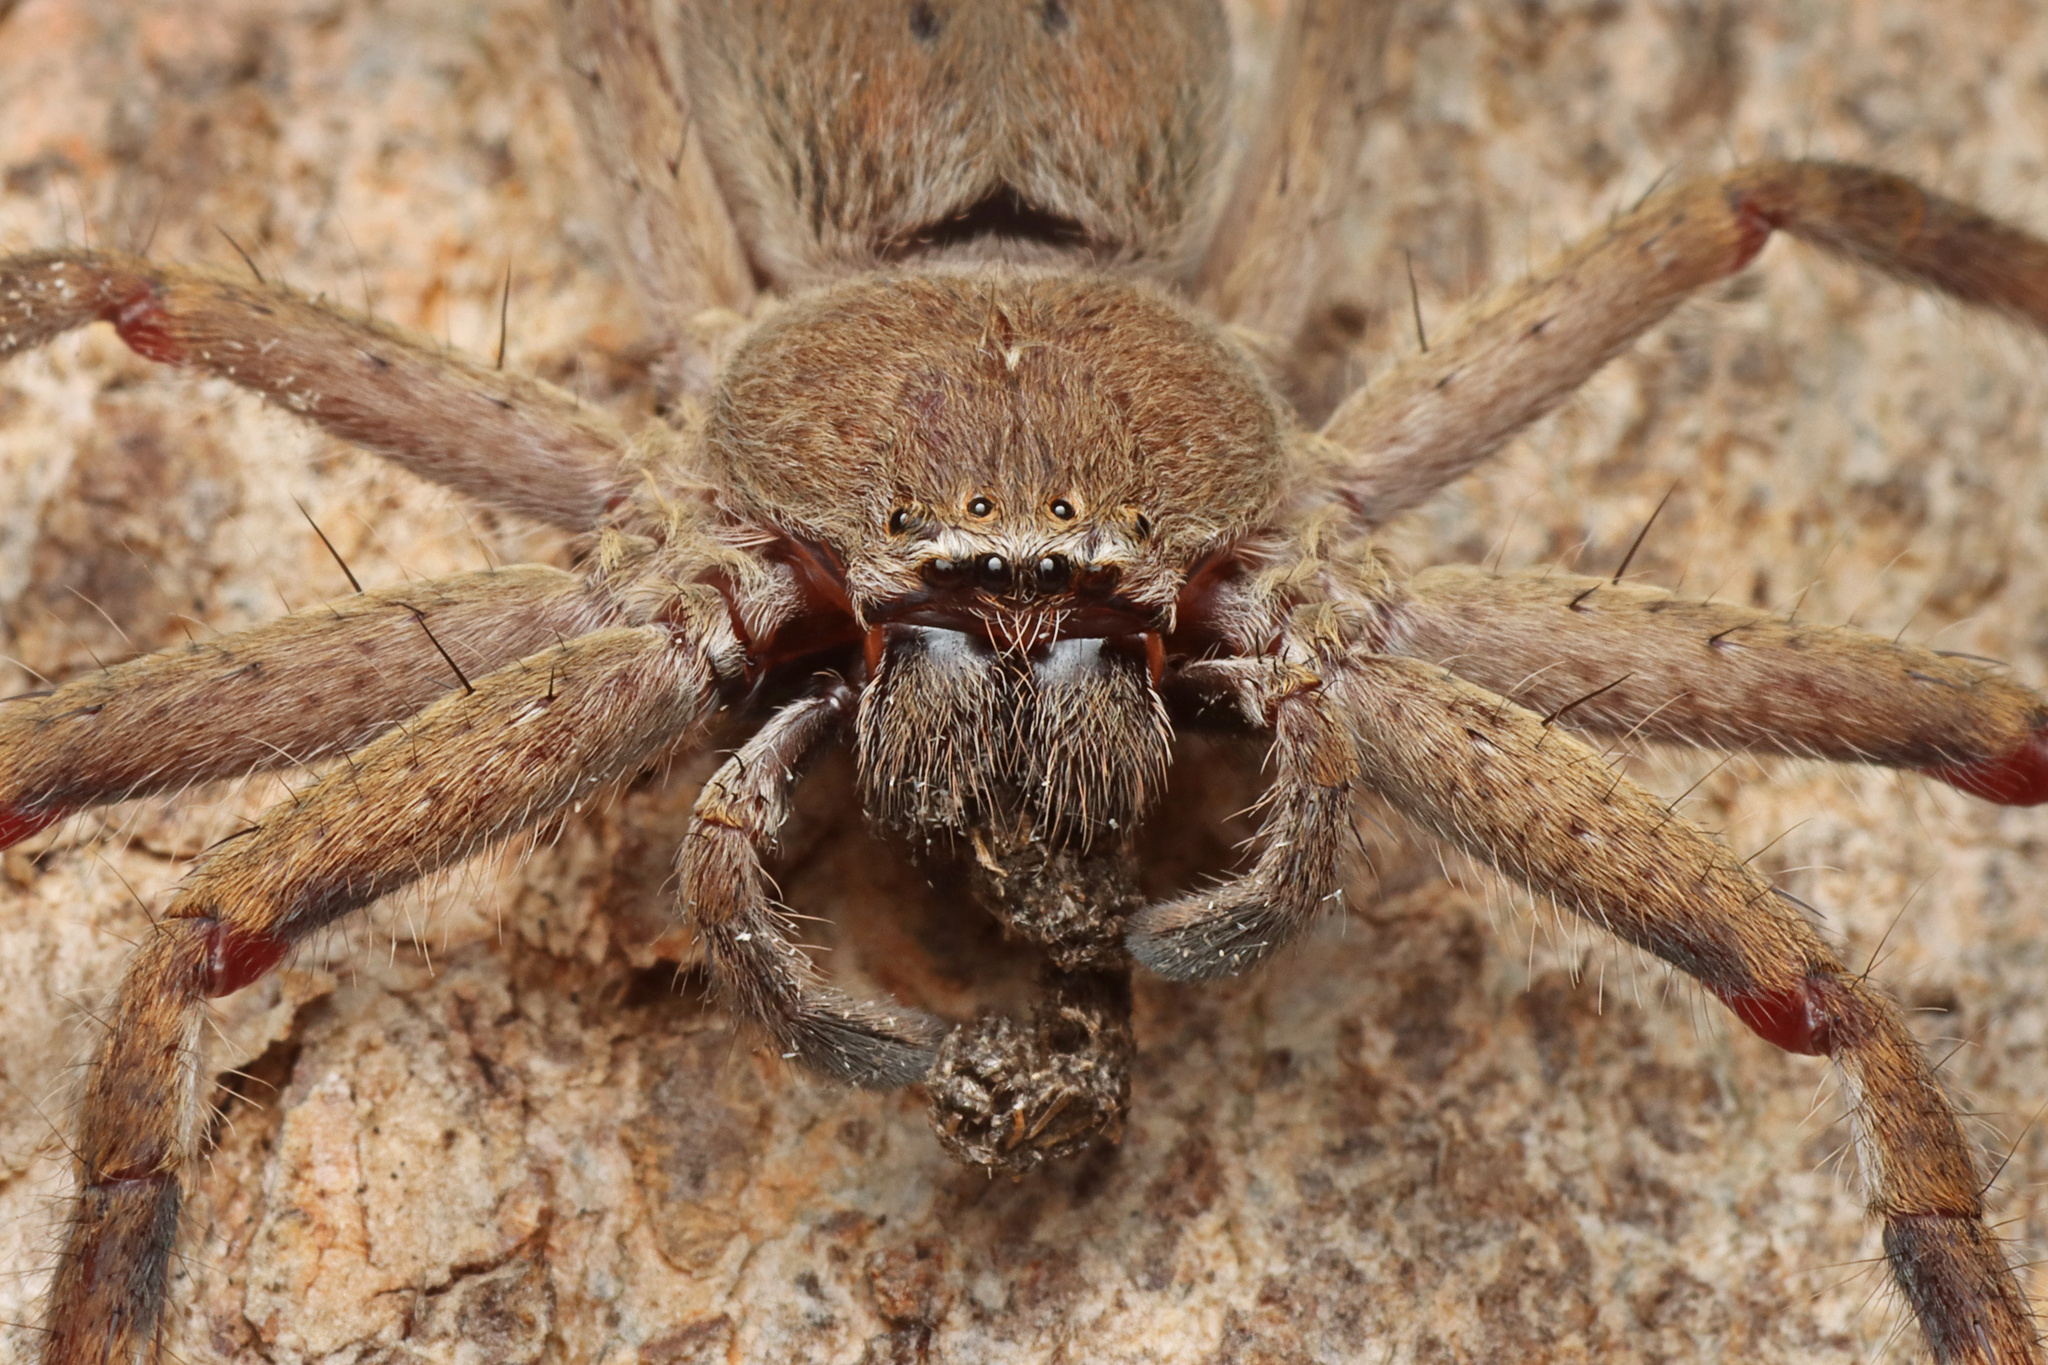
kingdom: Animalia
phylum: Arthropoda
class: Arachnida
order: Araneae
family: Sparassidae
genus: Isopedella
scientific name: Isopedella leai
